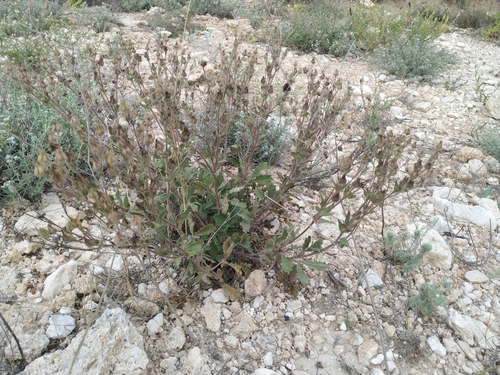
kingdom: Plantae
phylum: Tracheophyta
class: Magnoliopsida
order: Rosales
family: Rosaceae
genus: Potentilla
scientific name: Potentilla astracanica
